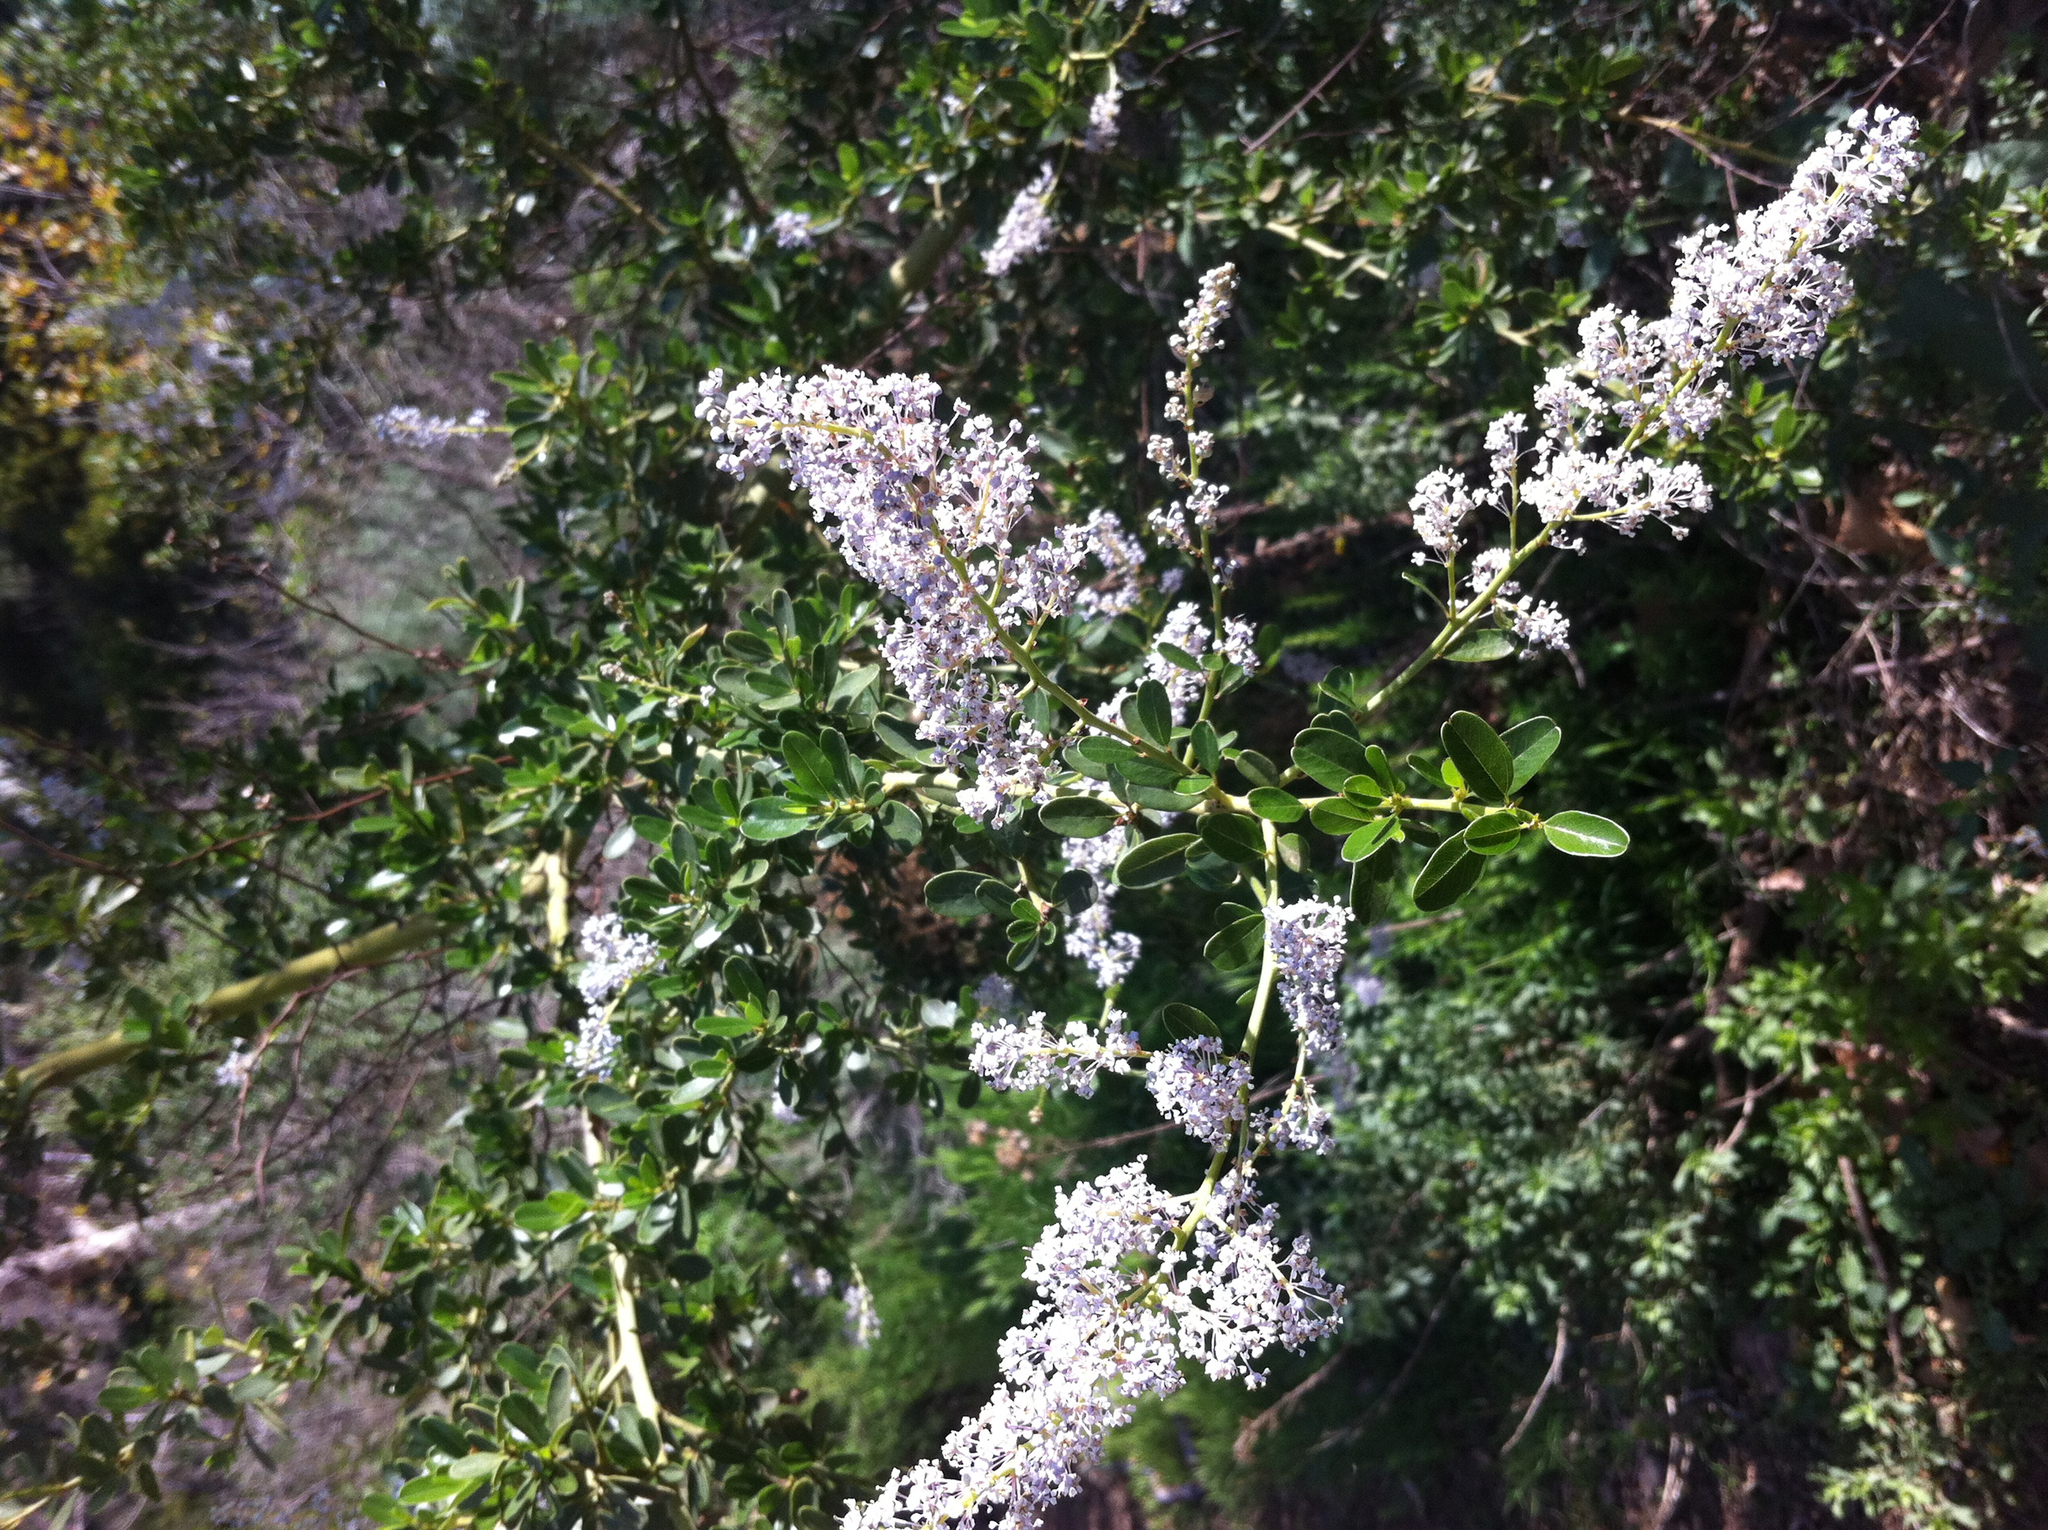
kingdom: Plantae
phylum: Tracheophyta
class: Magnoliopsida
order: Rosales
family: Rhamnaceae
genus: Ceanothus
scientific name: Ceanothus spinosus
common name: Greenbark whitethorn
